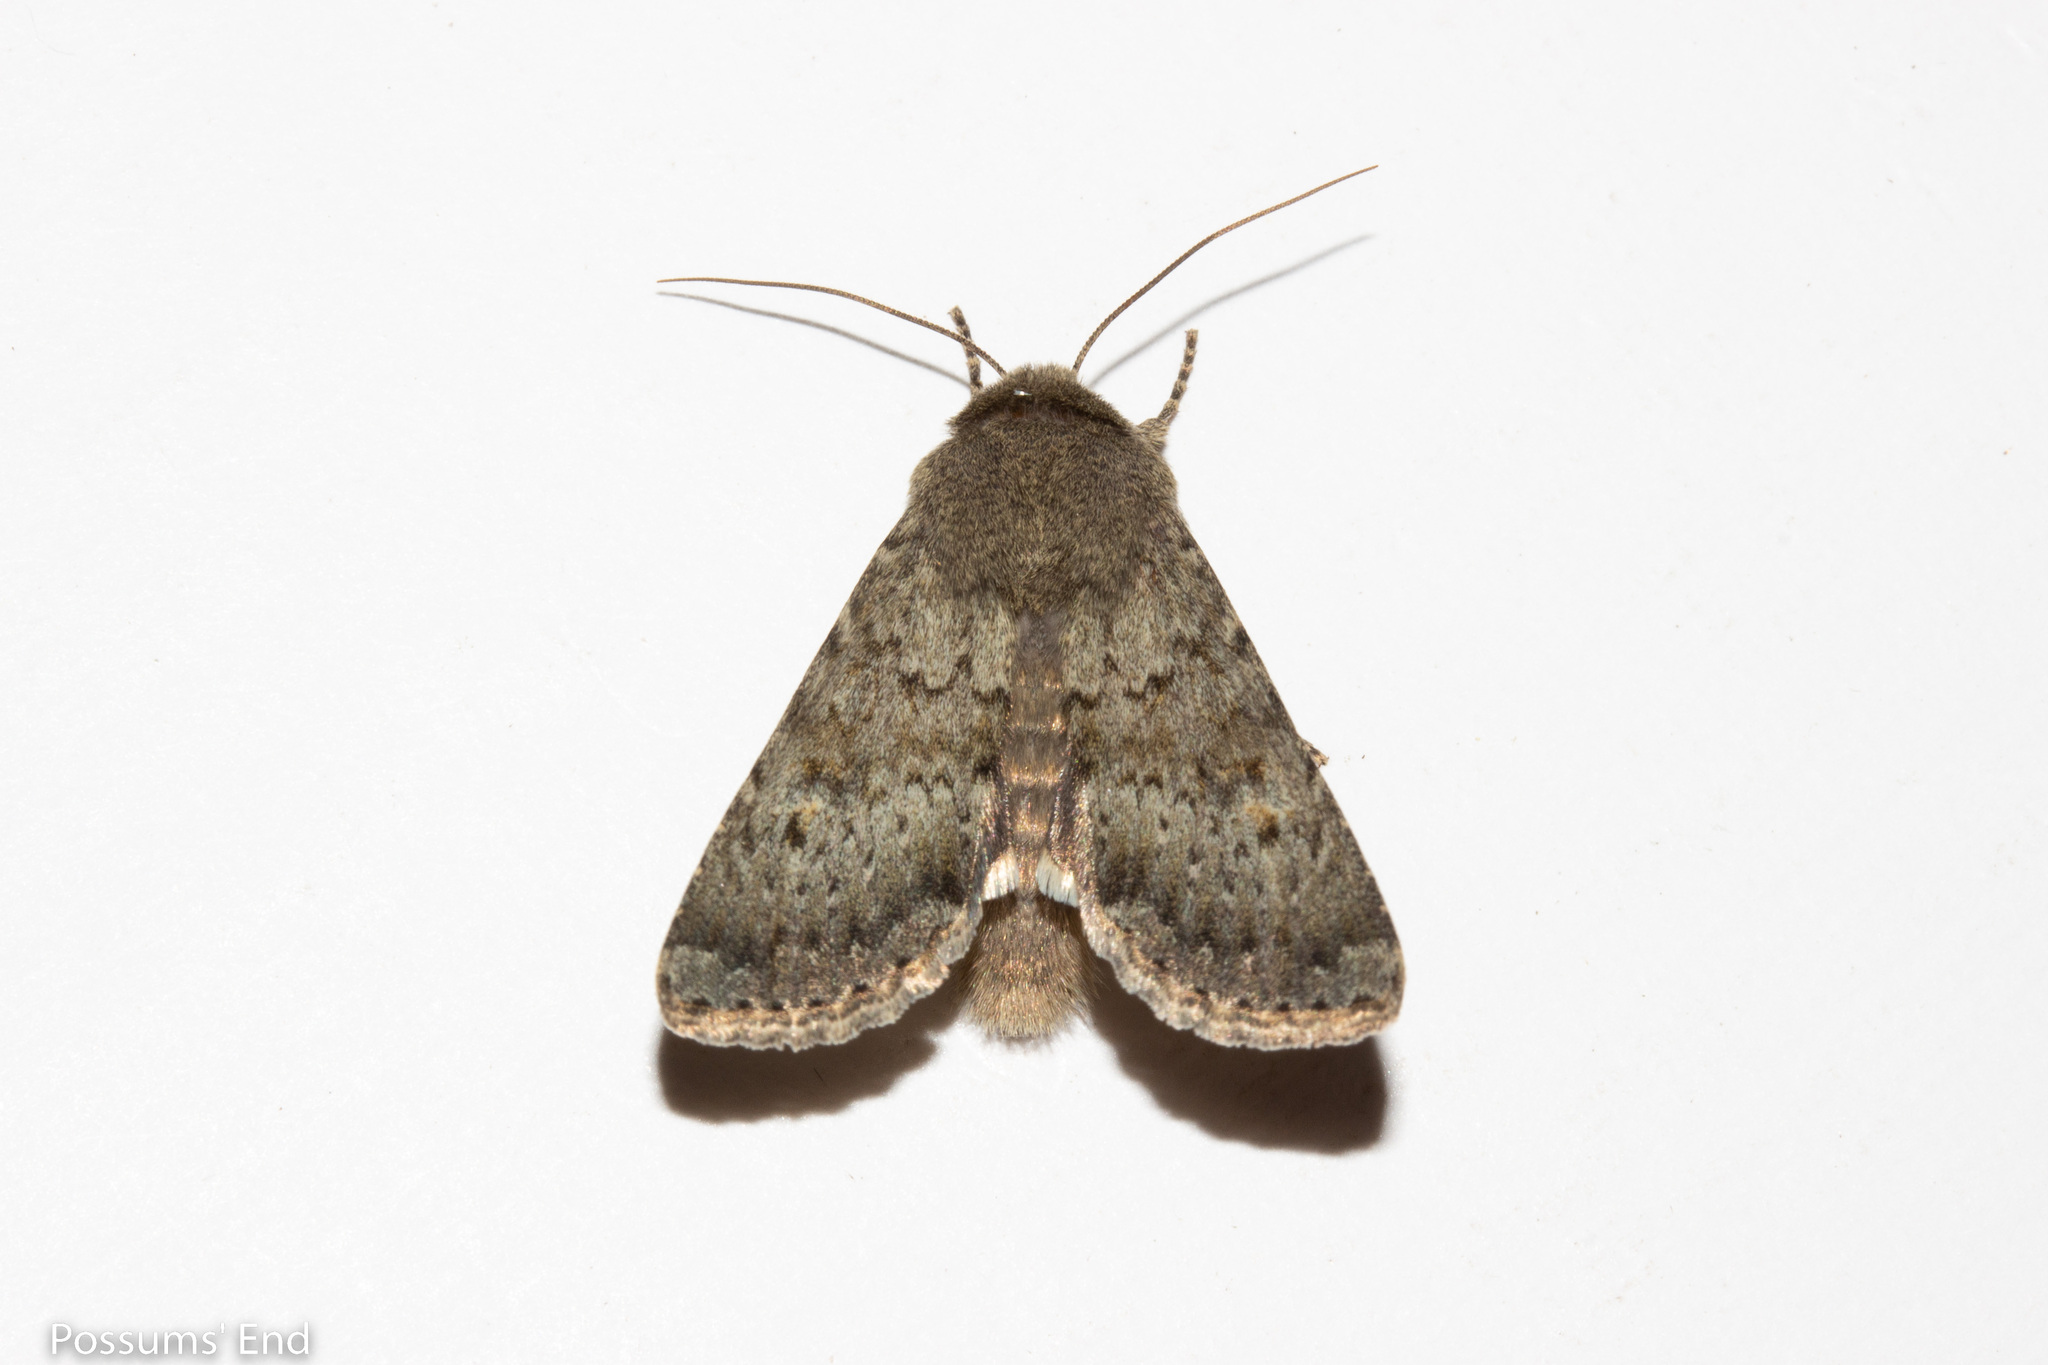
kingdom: Animalia
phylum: Arthropoda
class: Insecta
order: Lepidoptera
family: Noctuidae
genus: Ichneutica
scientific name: Ichneutica moderata
